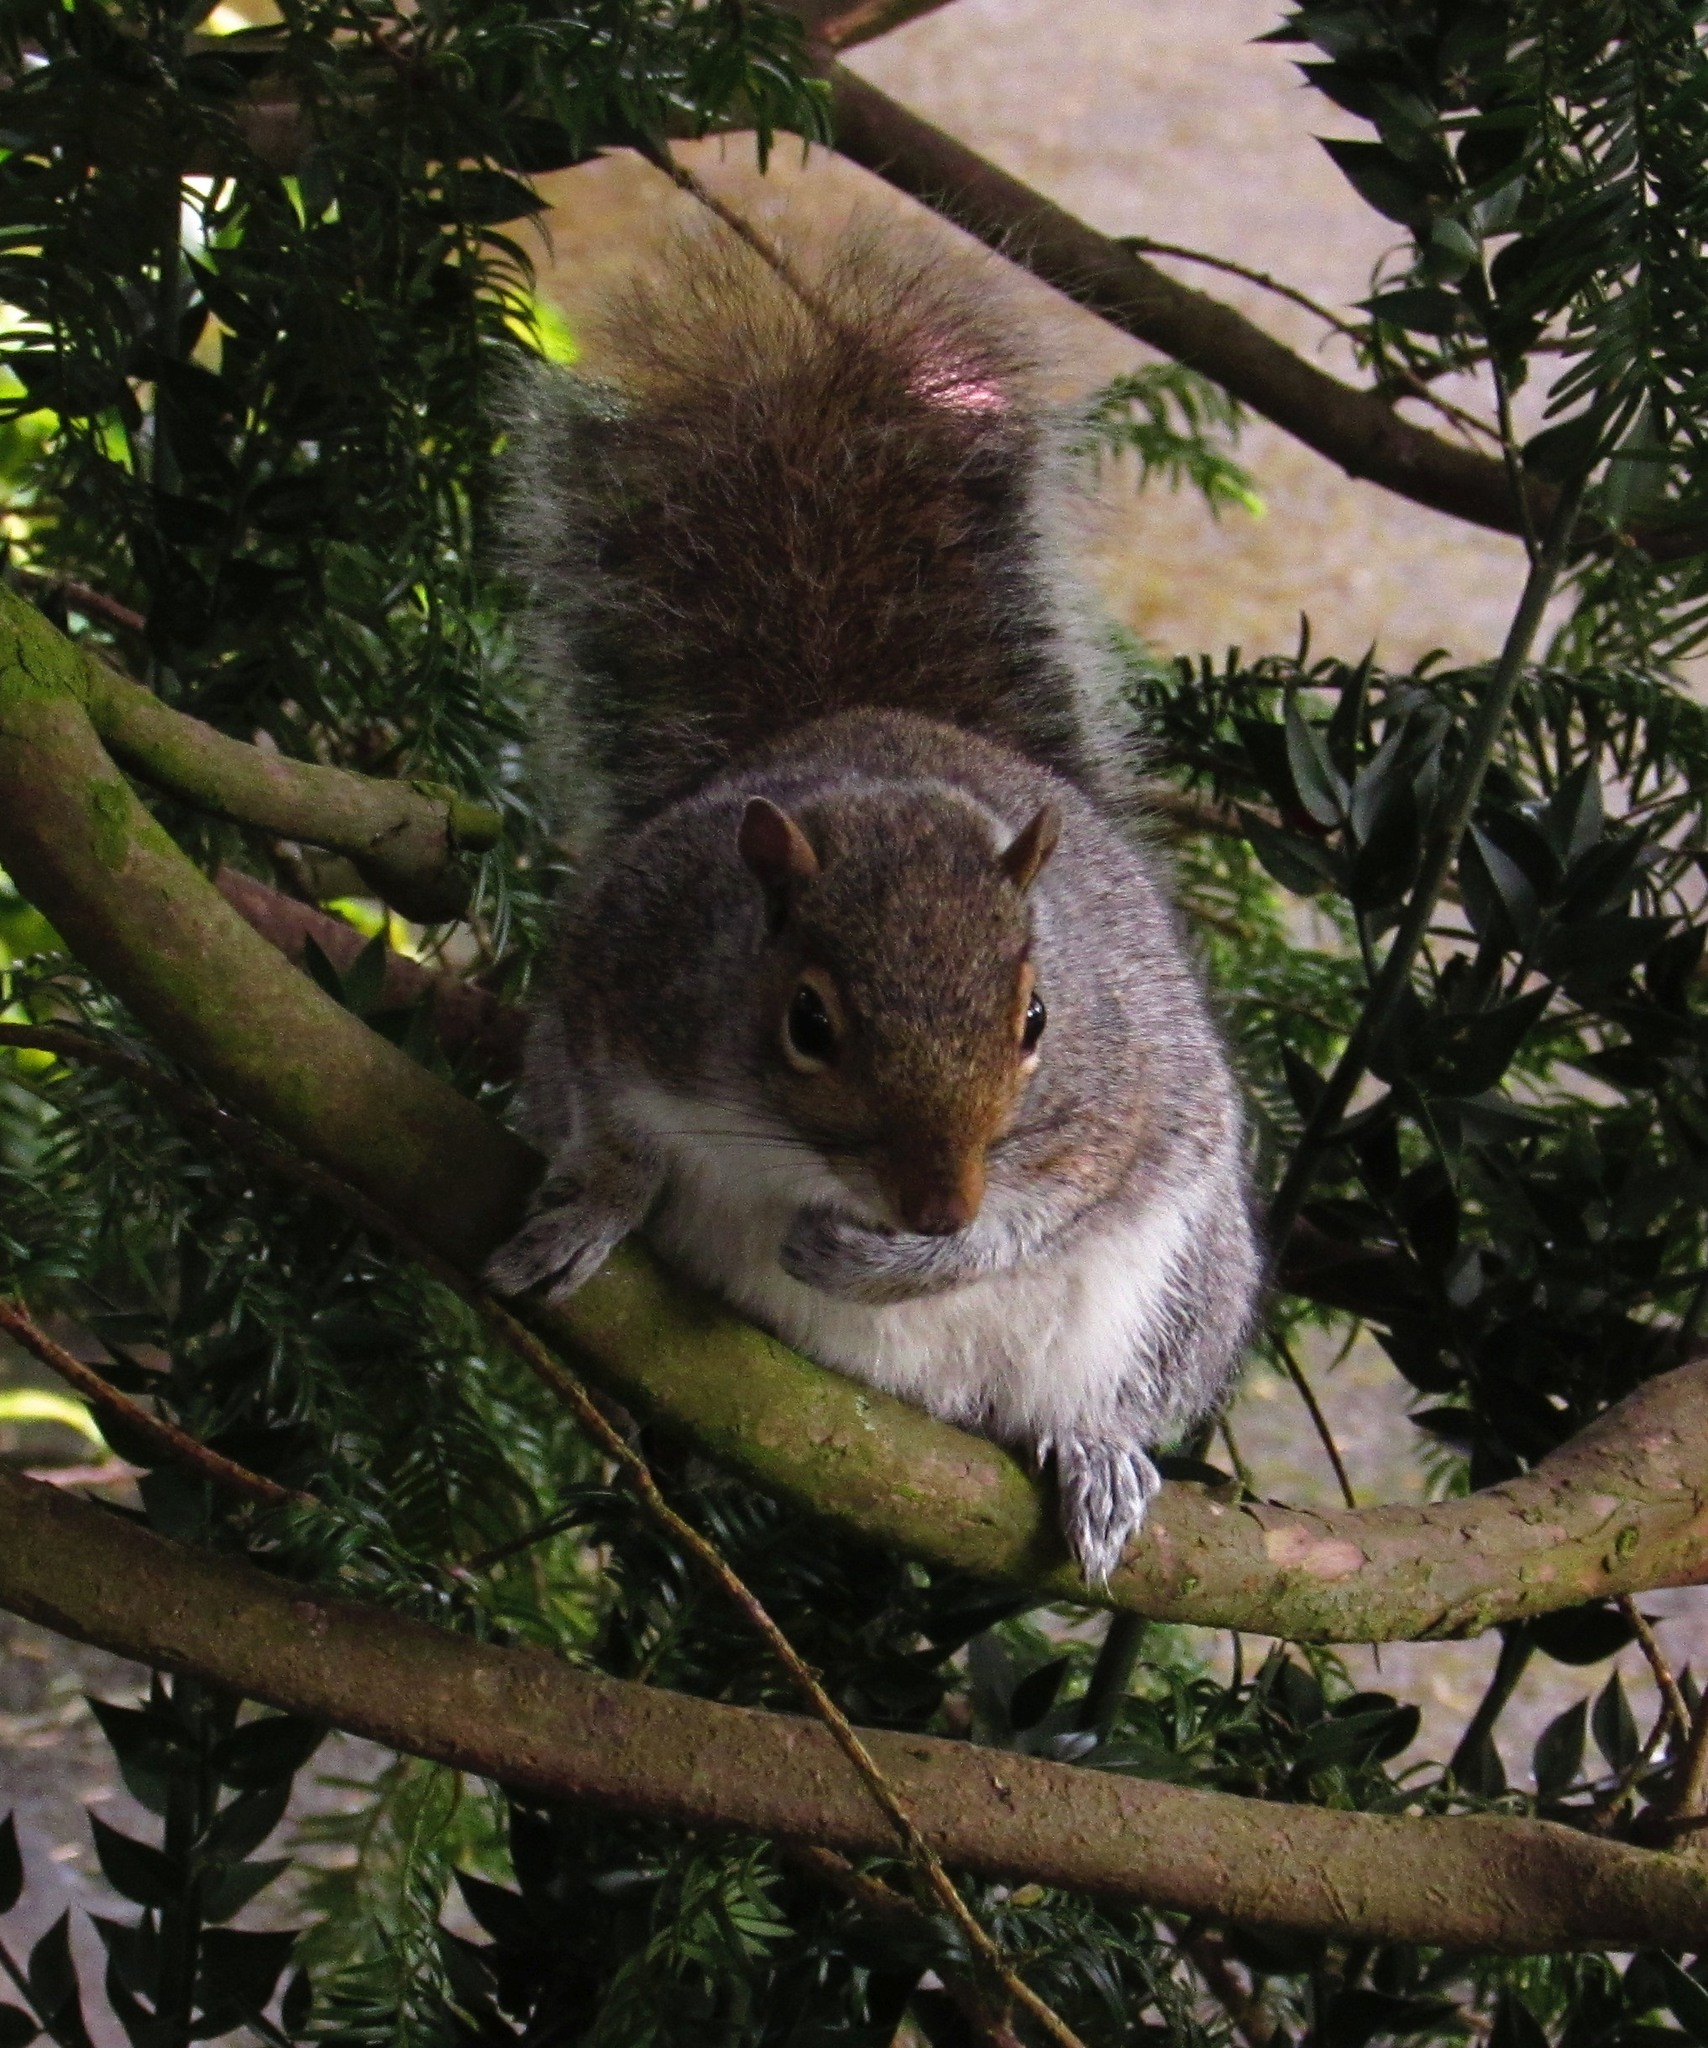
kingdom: Animalia
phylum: Chordata
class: Mammalia
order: Rodentia
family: Sciuridae
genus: Sciurus
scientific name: Sciurus carolinensis
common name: Eastern gray squirrel
